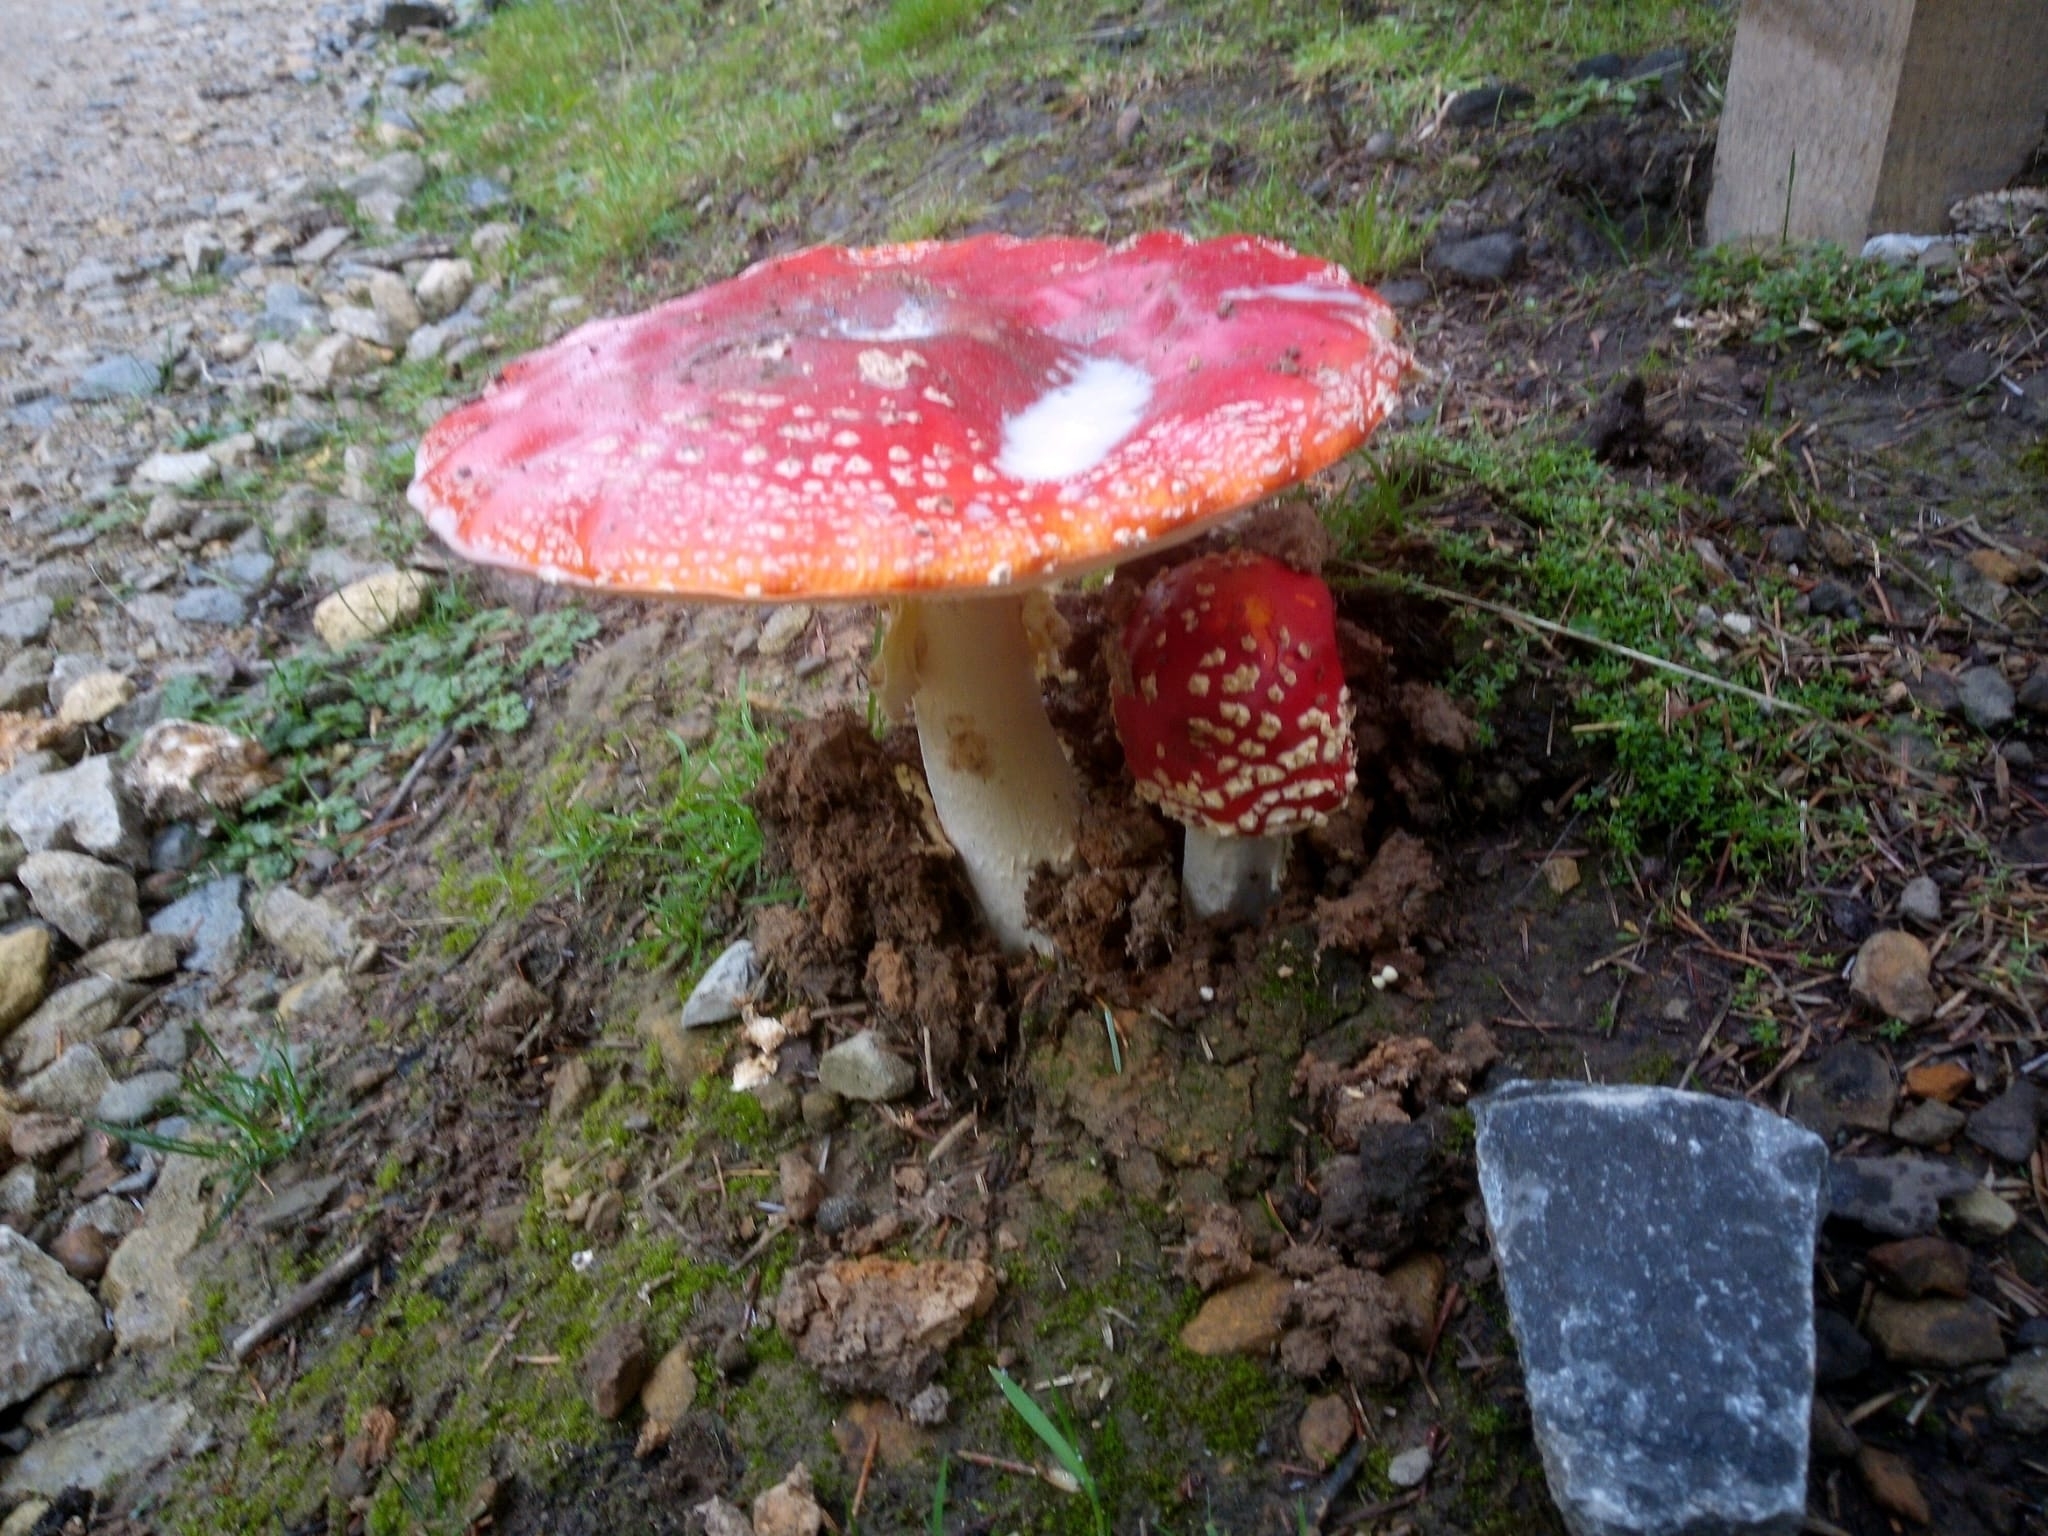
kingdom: Fungi
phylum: Basidiomycota
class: Agaricomycetes
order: Agaricales
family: Amanitaceae
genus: Amanita
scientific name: Amanita muscaria
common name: Fly agaric
